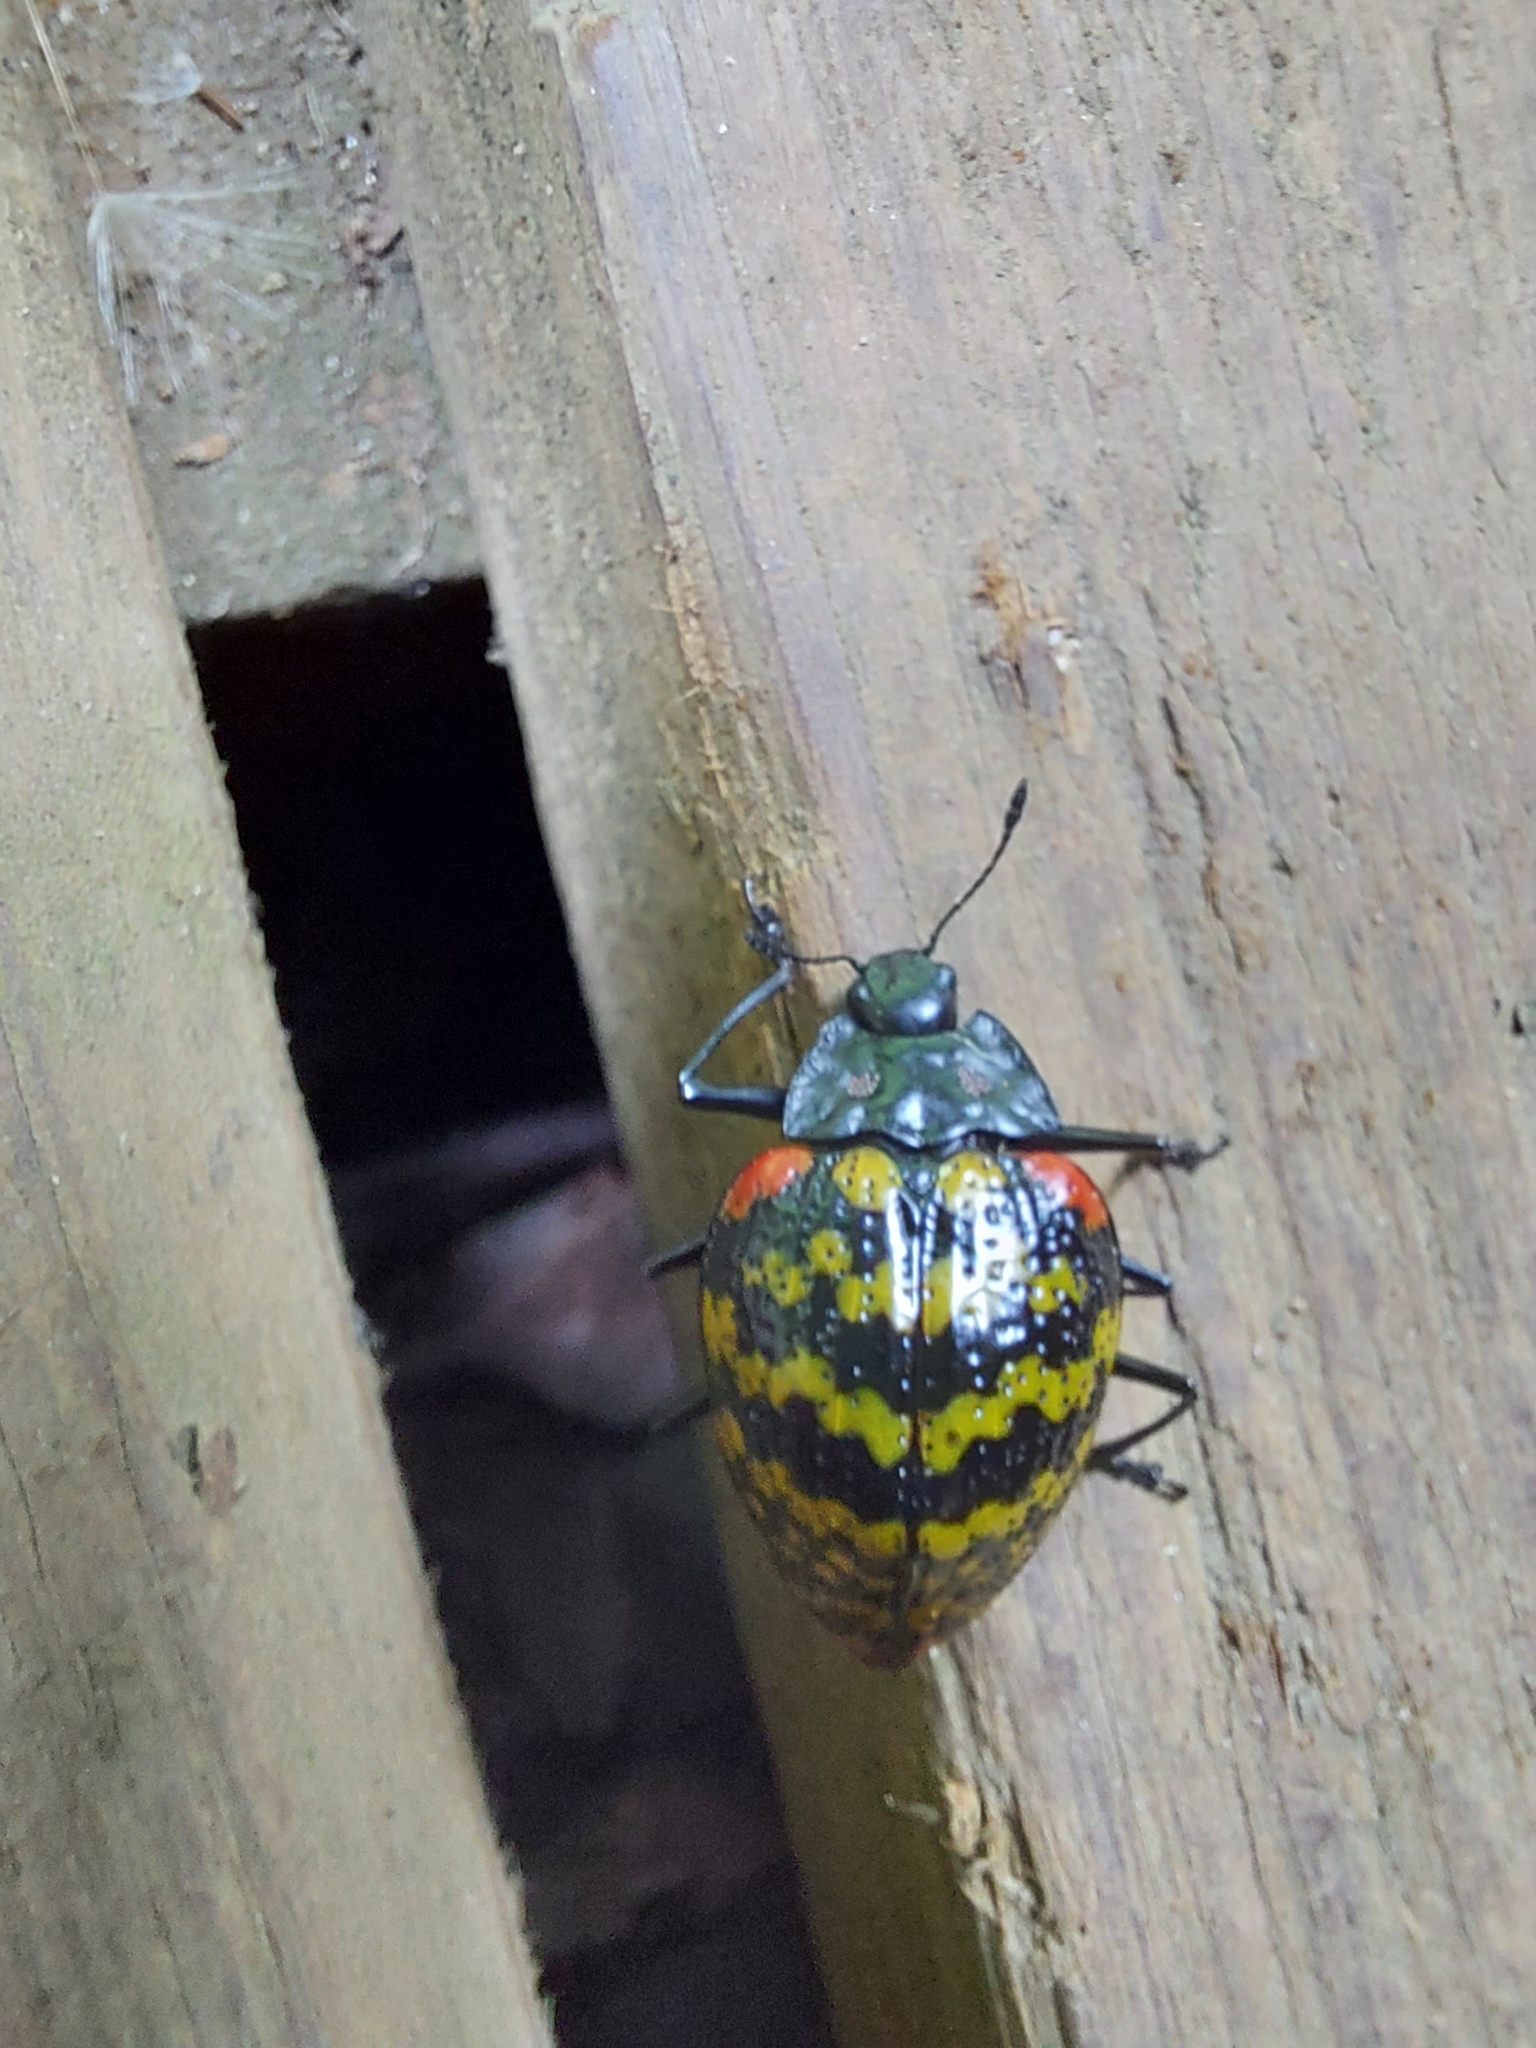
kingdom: Animalia
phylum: Arthropoda
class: Insecta
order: Coleoptera
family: Erotylidae
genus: Erotylus
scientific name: Erotylus histrio
